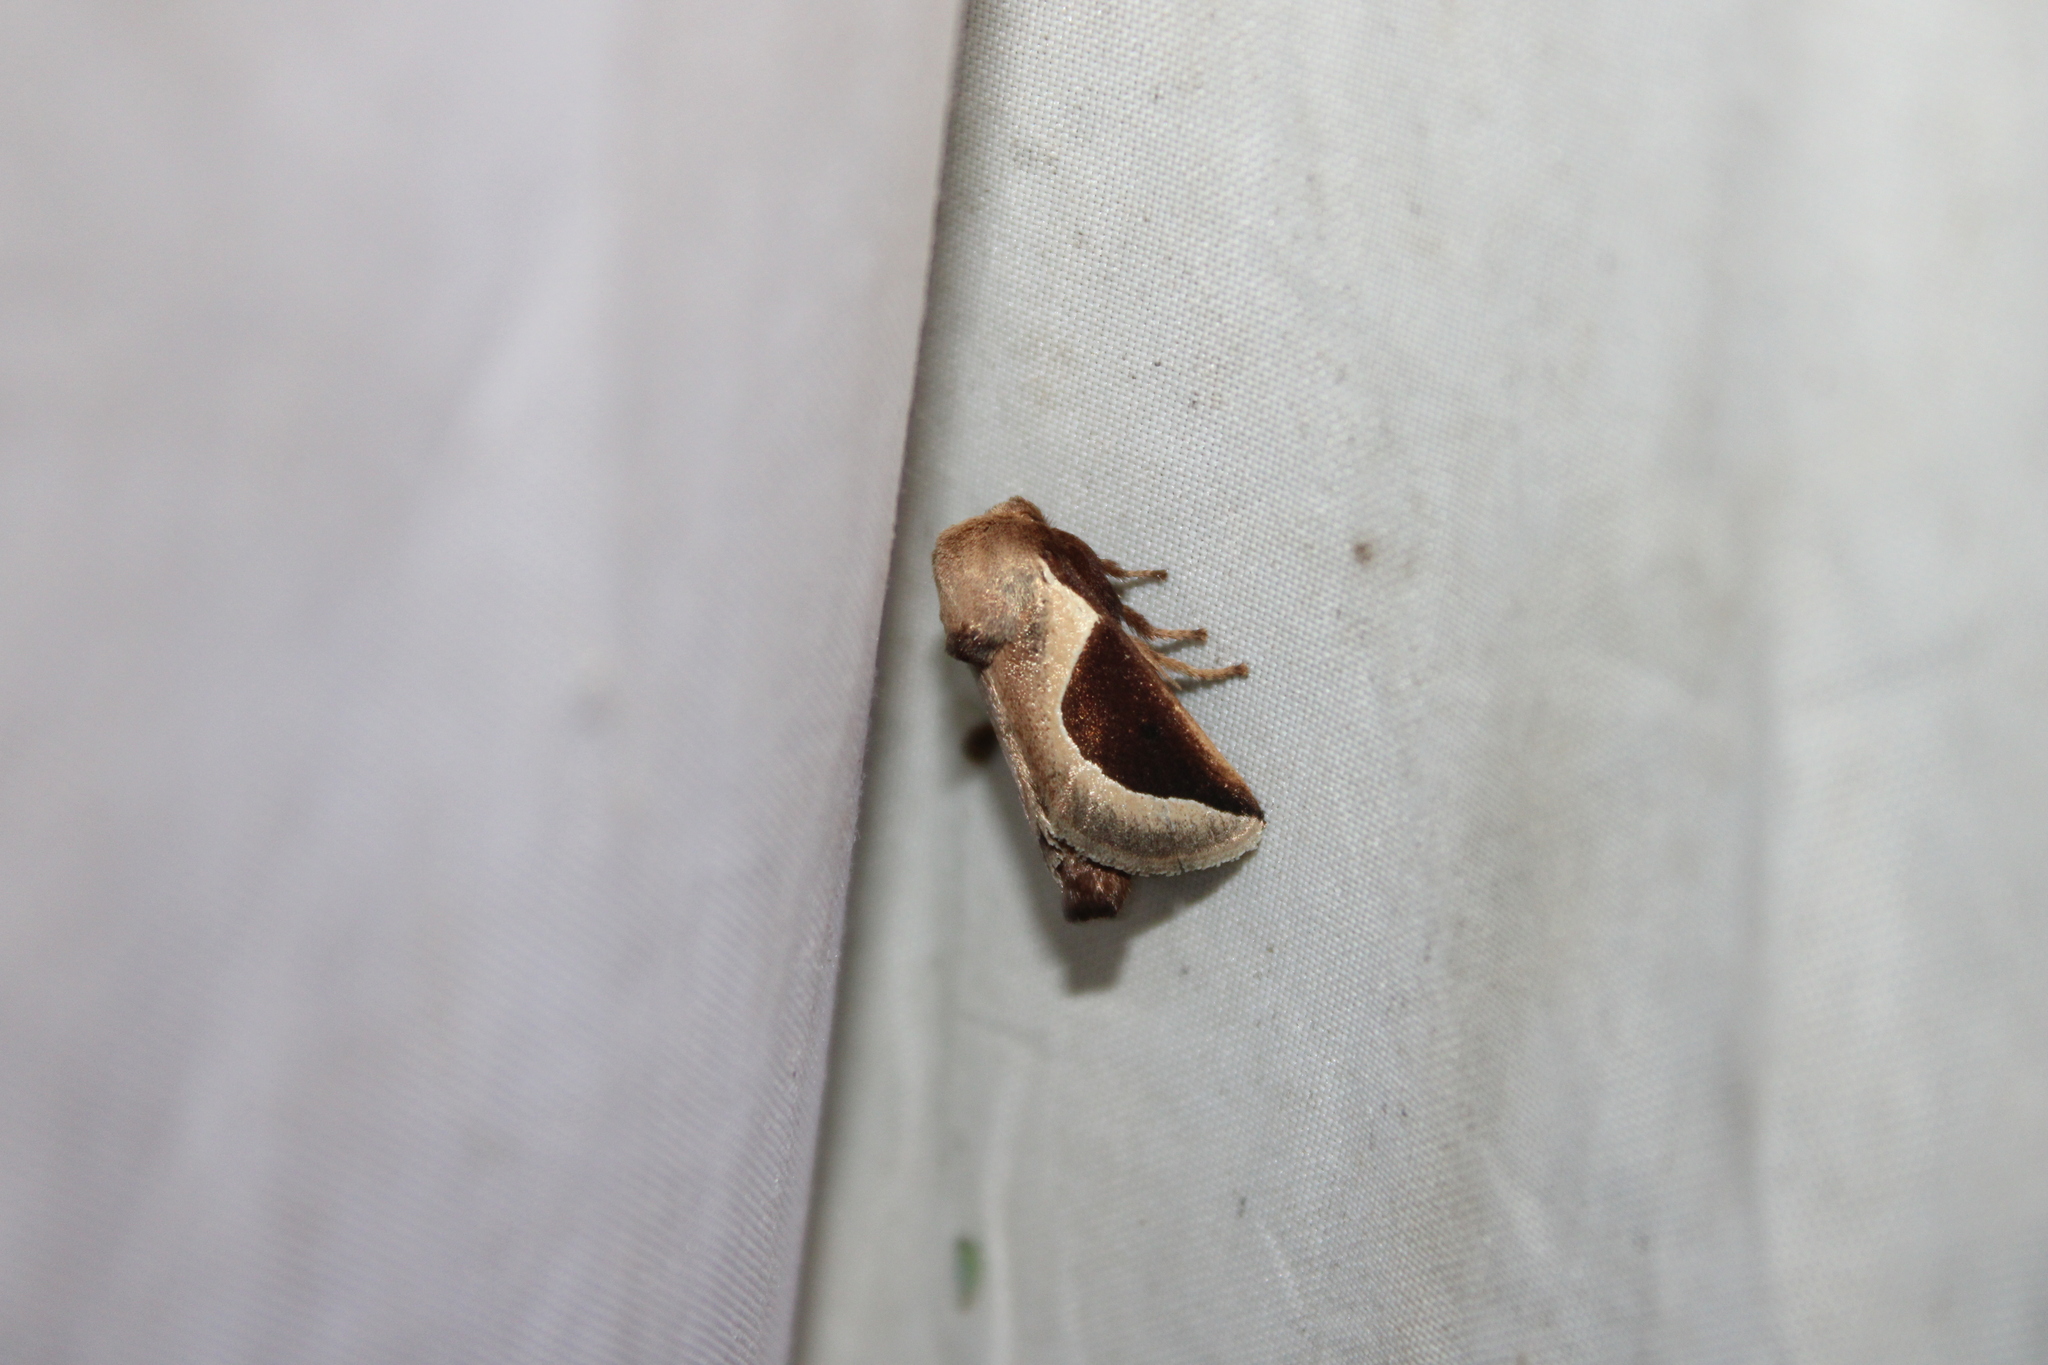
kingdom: Animalia
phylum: Arthropoda
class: Insecta
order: Lepidoptera
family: Limacodidae
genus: Prolimacodes
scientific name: Prolimacodes badia
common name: Skiff moth
